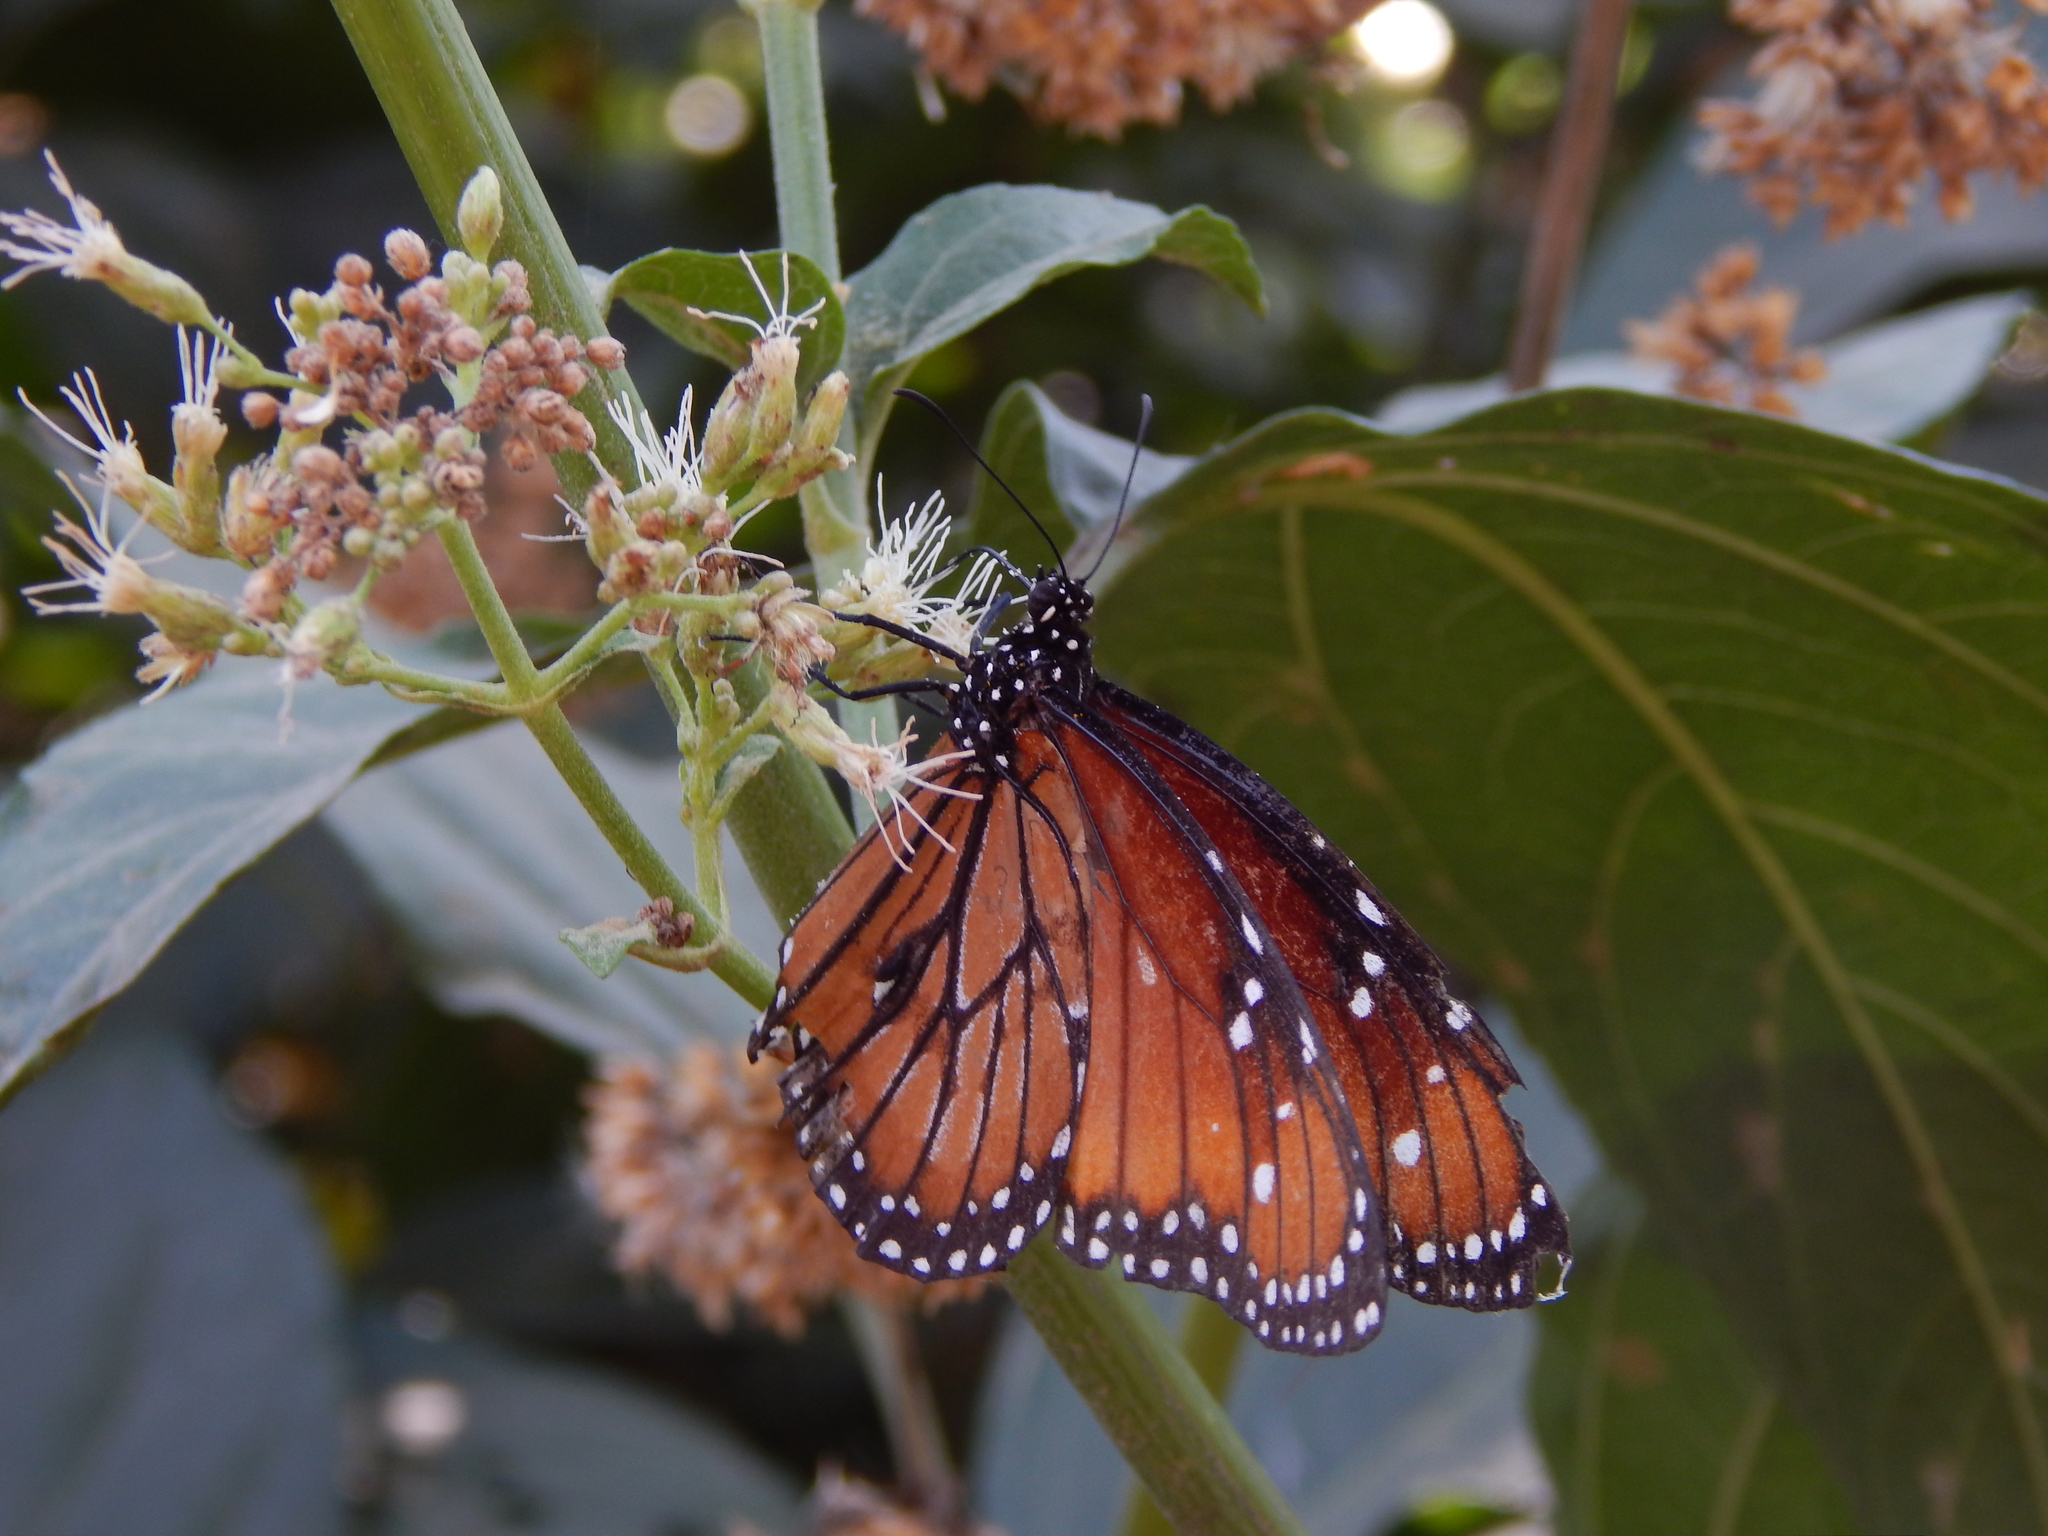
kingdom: Animalia
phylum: Arthropoda
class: Insecta
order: Lepidoptera
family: Nymphalidae
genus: Danaus
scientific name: Danaus eresimus
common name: Soldier
